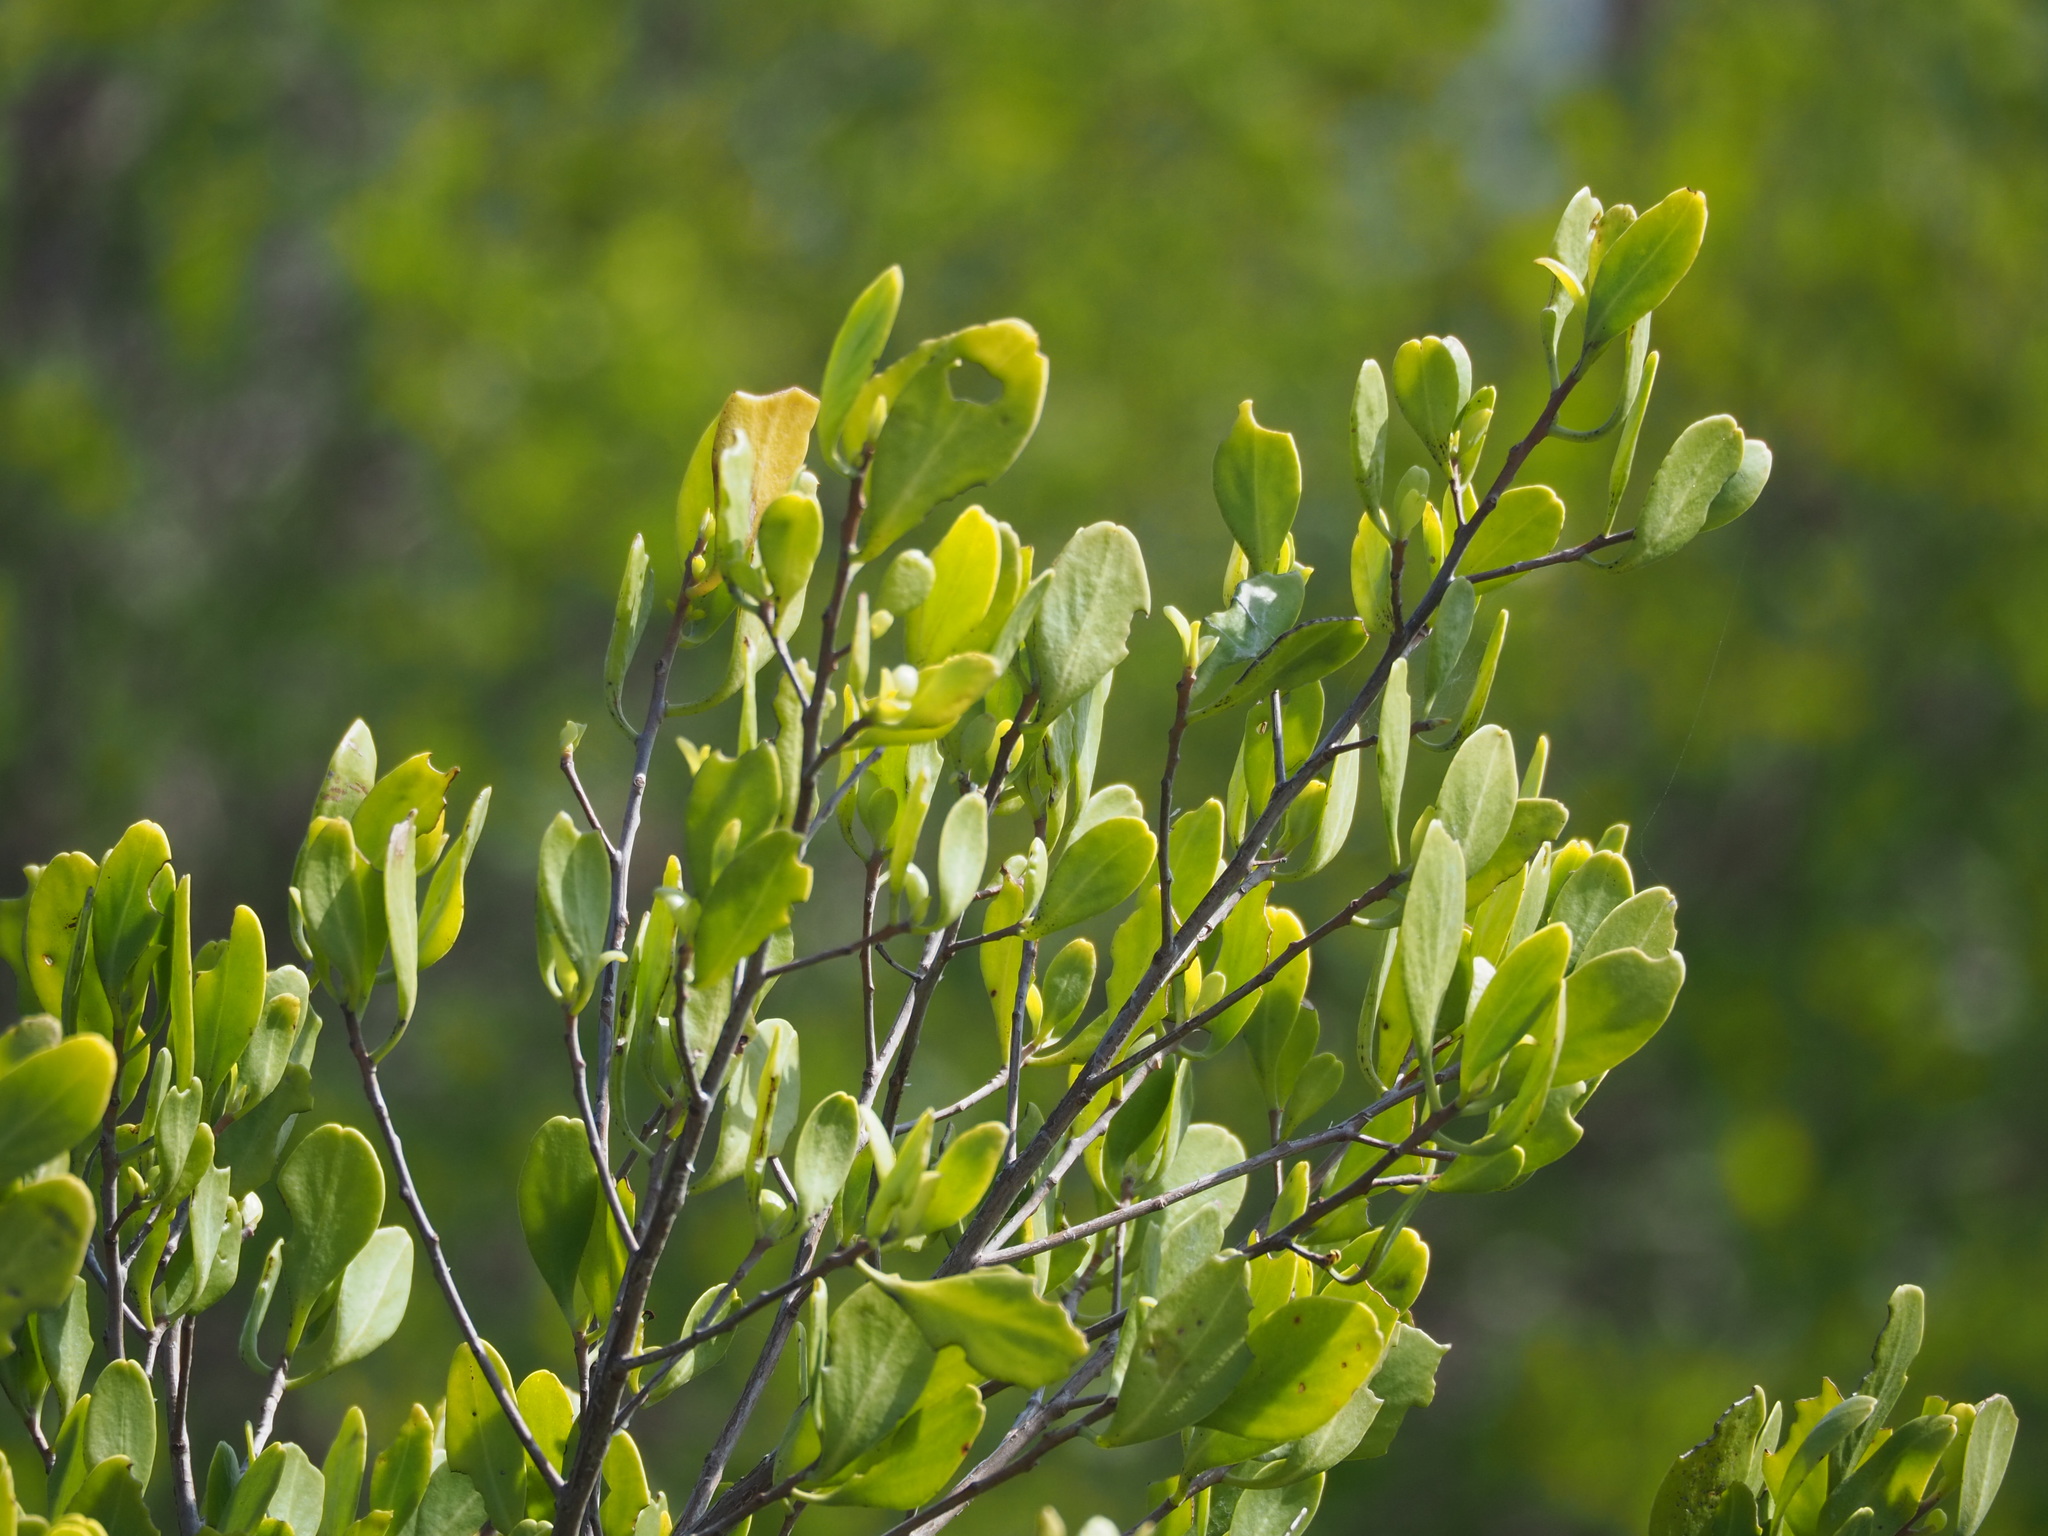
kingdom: Plantae
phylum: Tracheophyta
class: Magnoliopsida
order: Myrtales
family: Combretaceae
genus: Lumnitzera
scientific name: Lumnitzera racemosa
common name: White-flowered black mangrove
